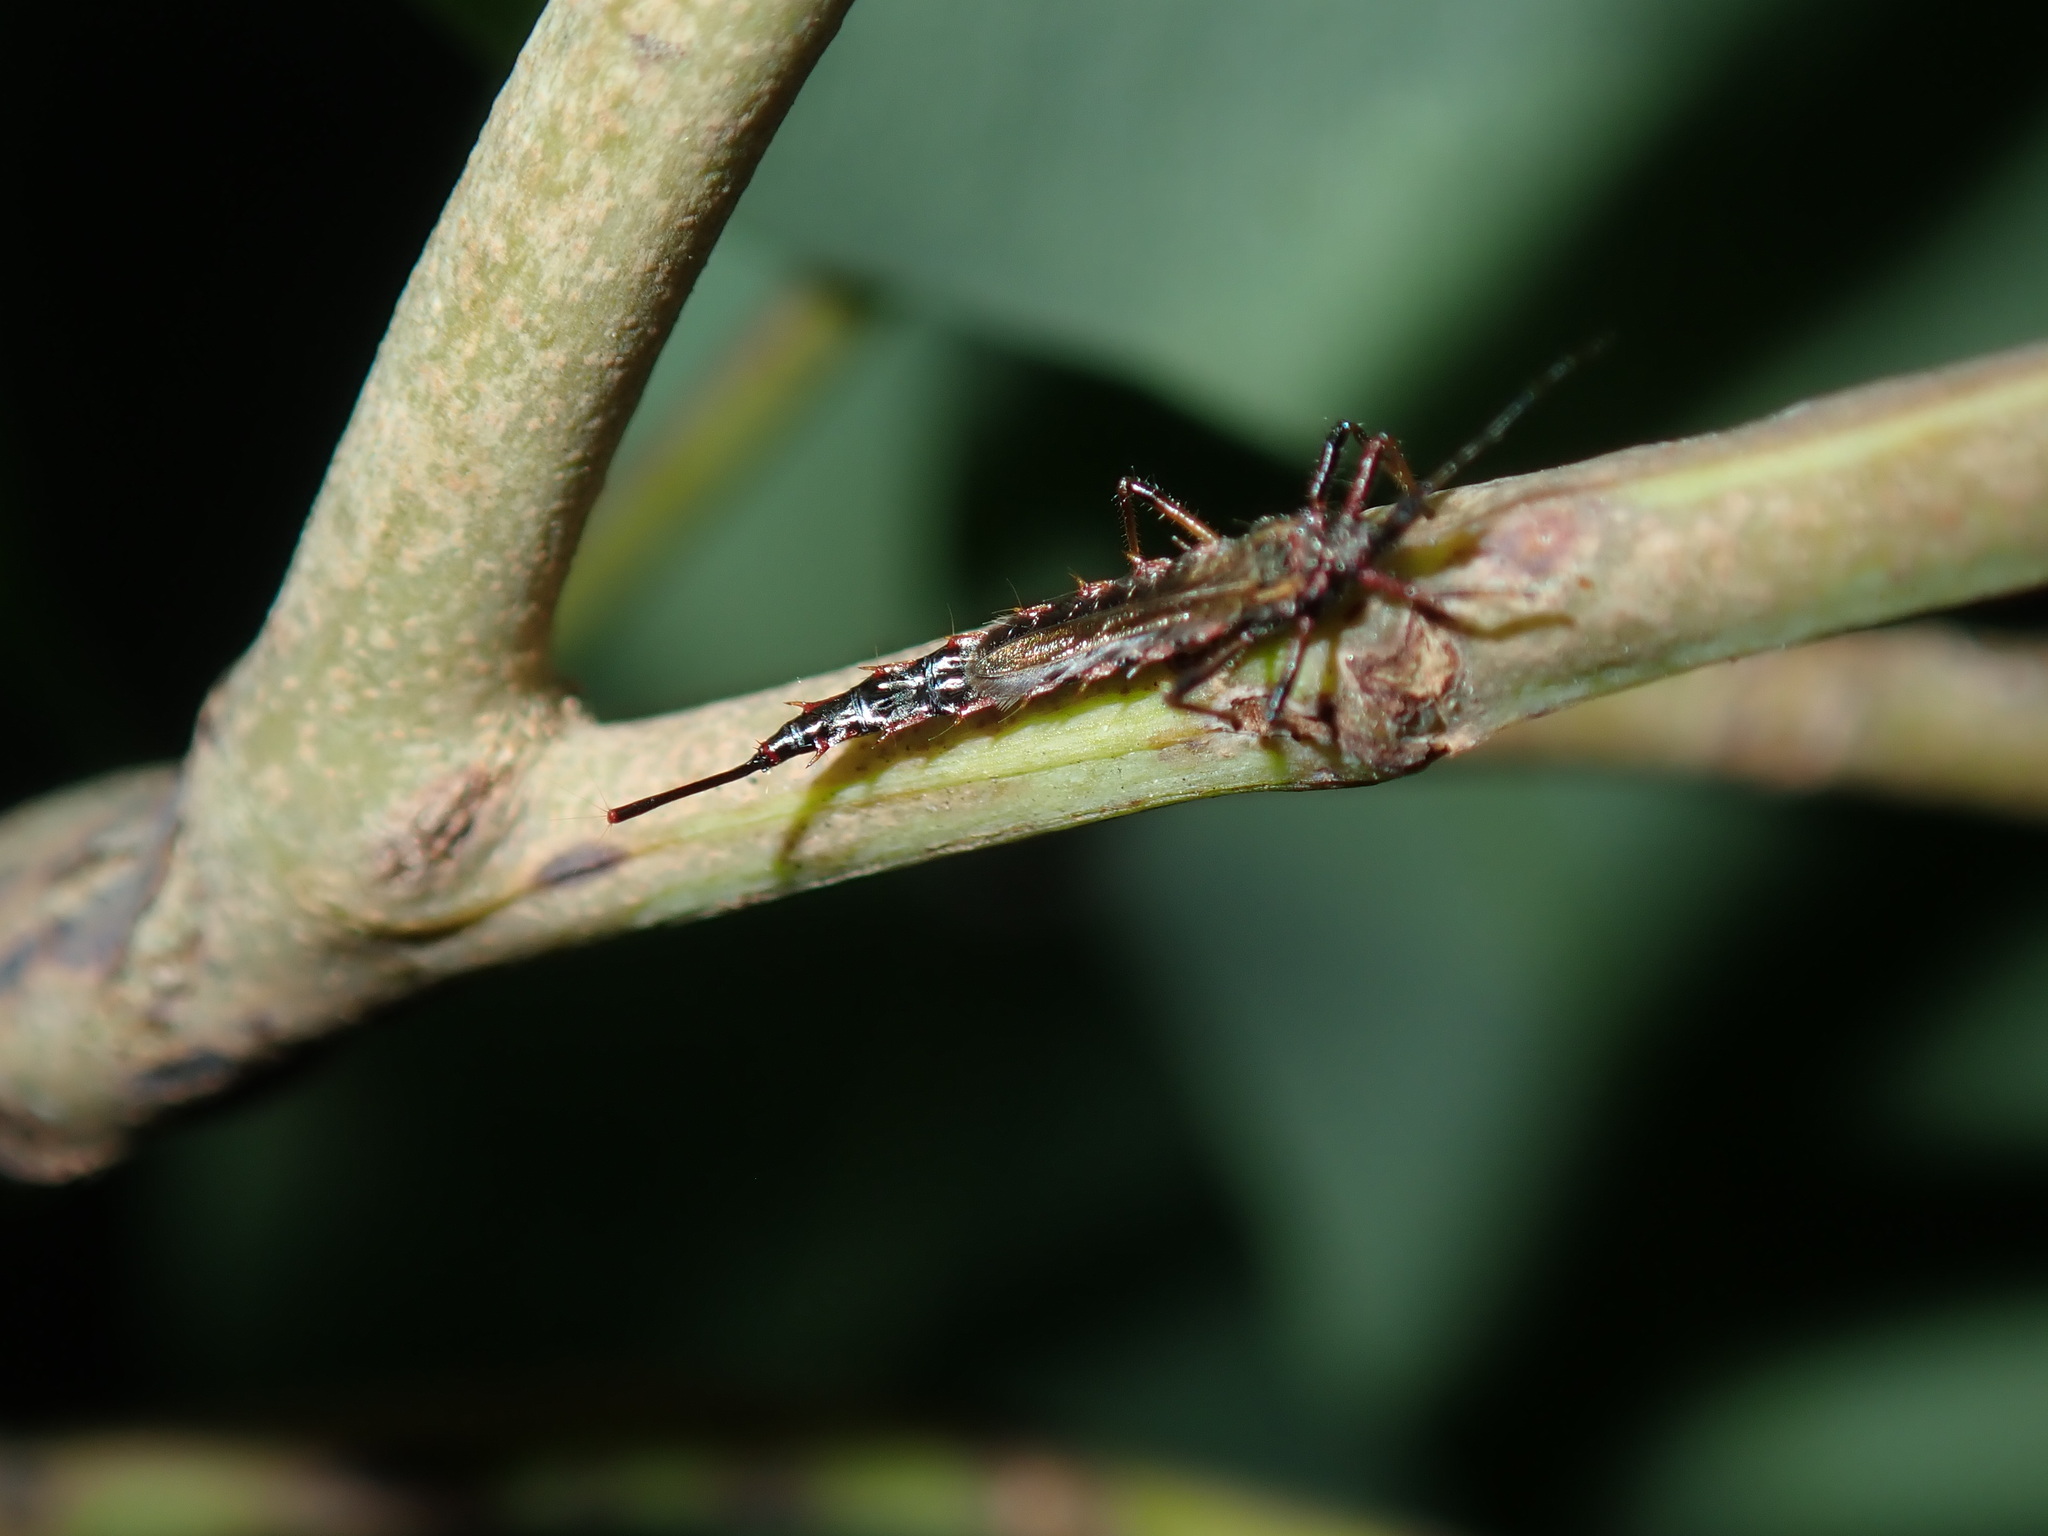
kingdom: Animalia
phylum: Arthropoda
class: Insecta
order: Thysanoptera
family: Phlaeothripidae
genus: Idolothrips
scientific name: Idolothrips spectrum
